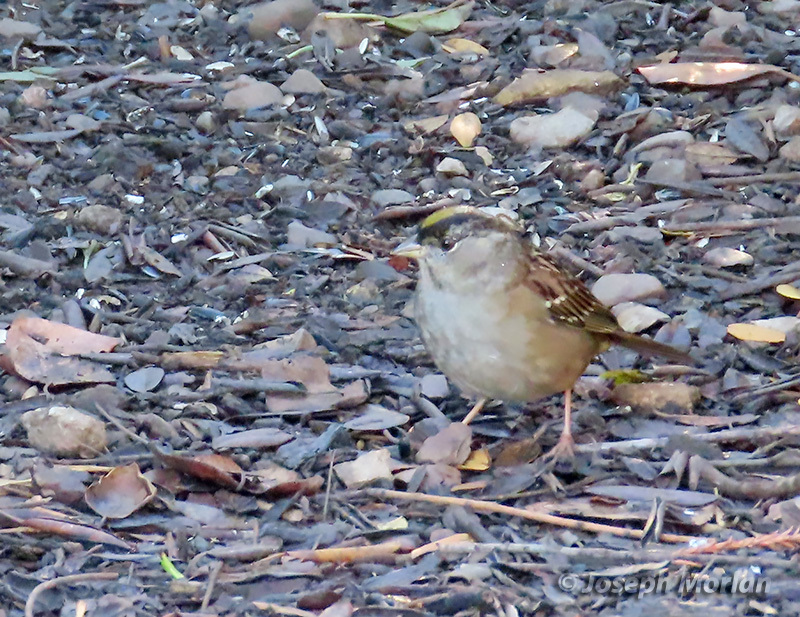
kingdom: Animalia
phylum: Chordata
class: Aves
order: Passeriformes
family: Passerellidae
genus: Zonotrichia
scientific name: Zonotrichia atricapilla
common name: Golden-crowned sparrow
